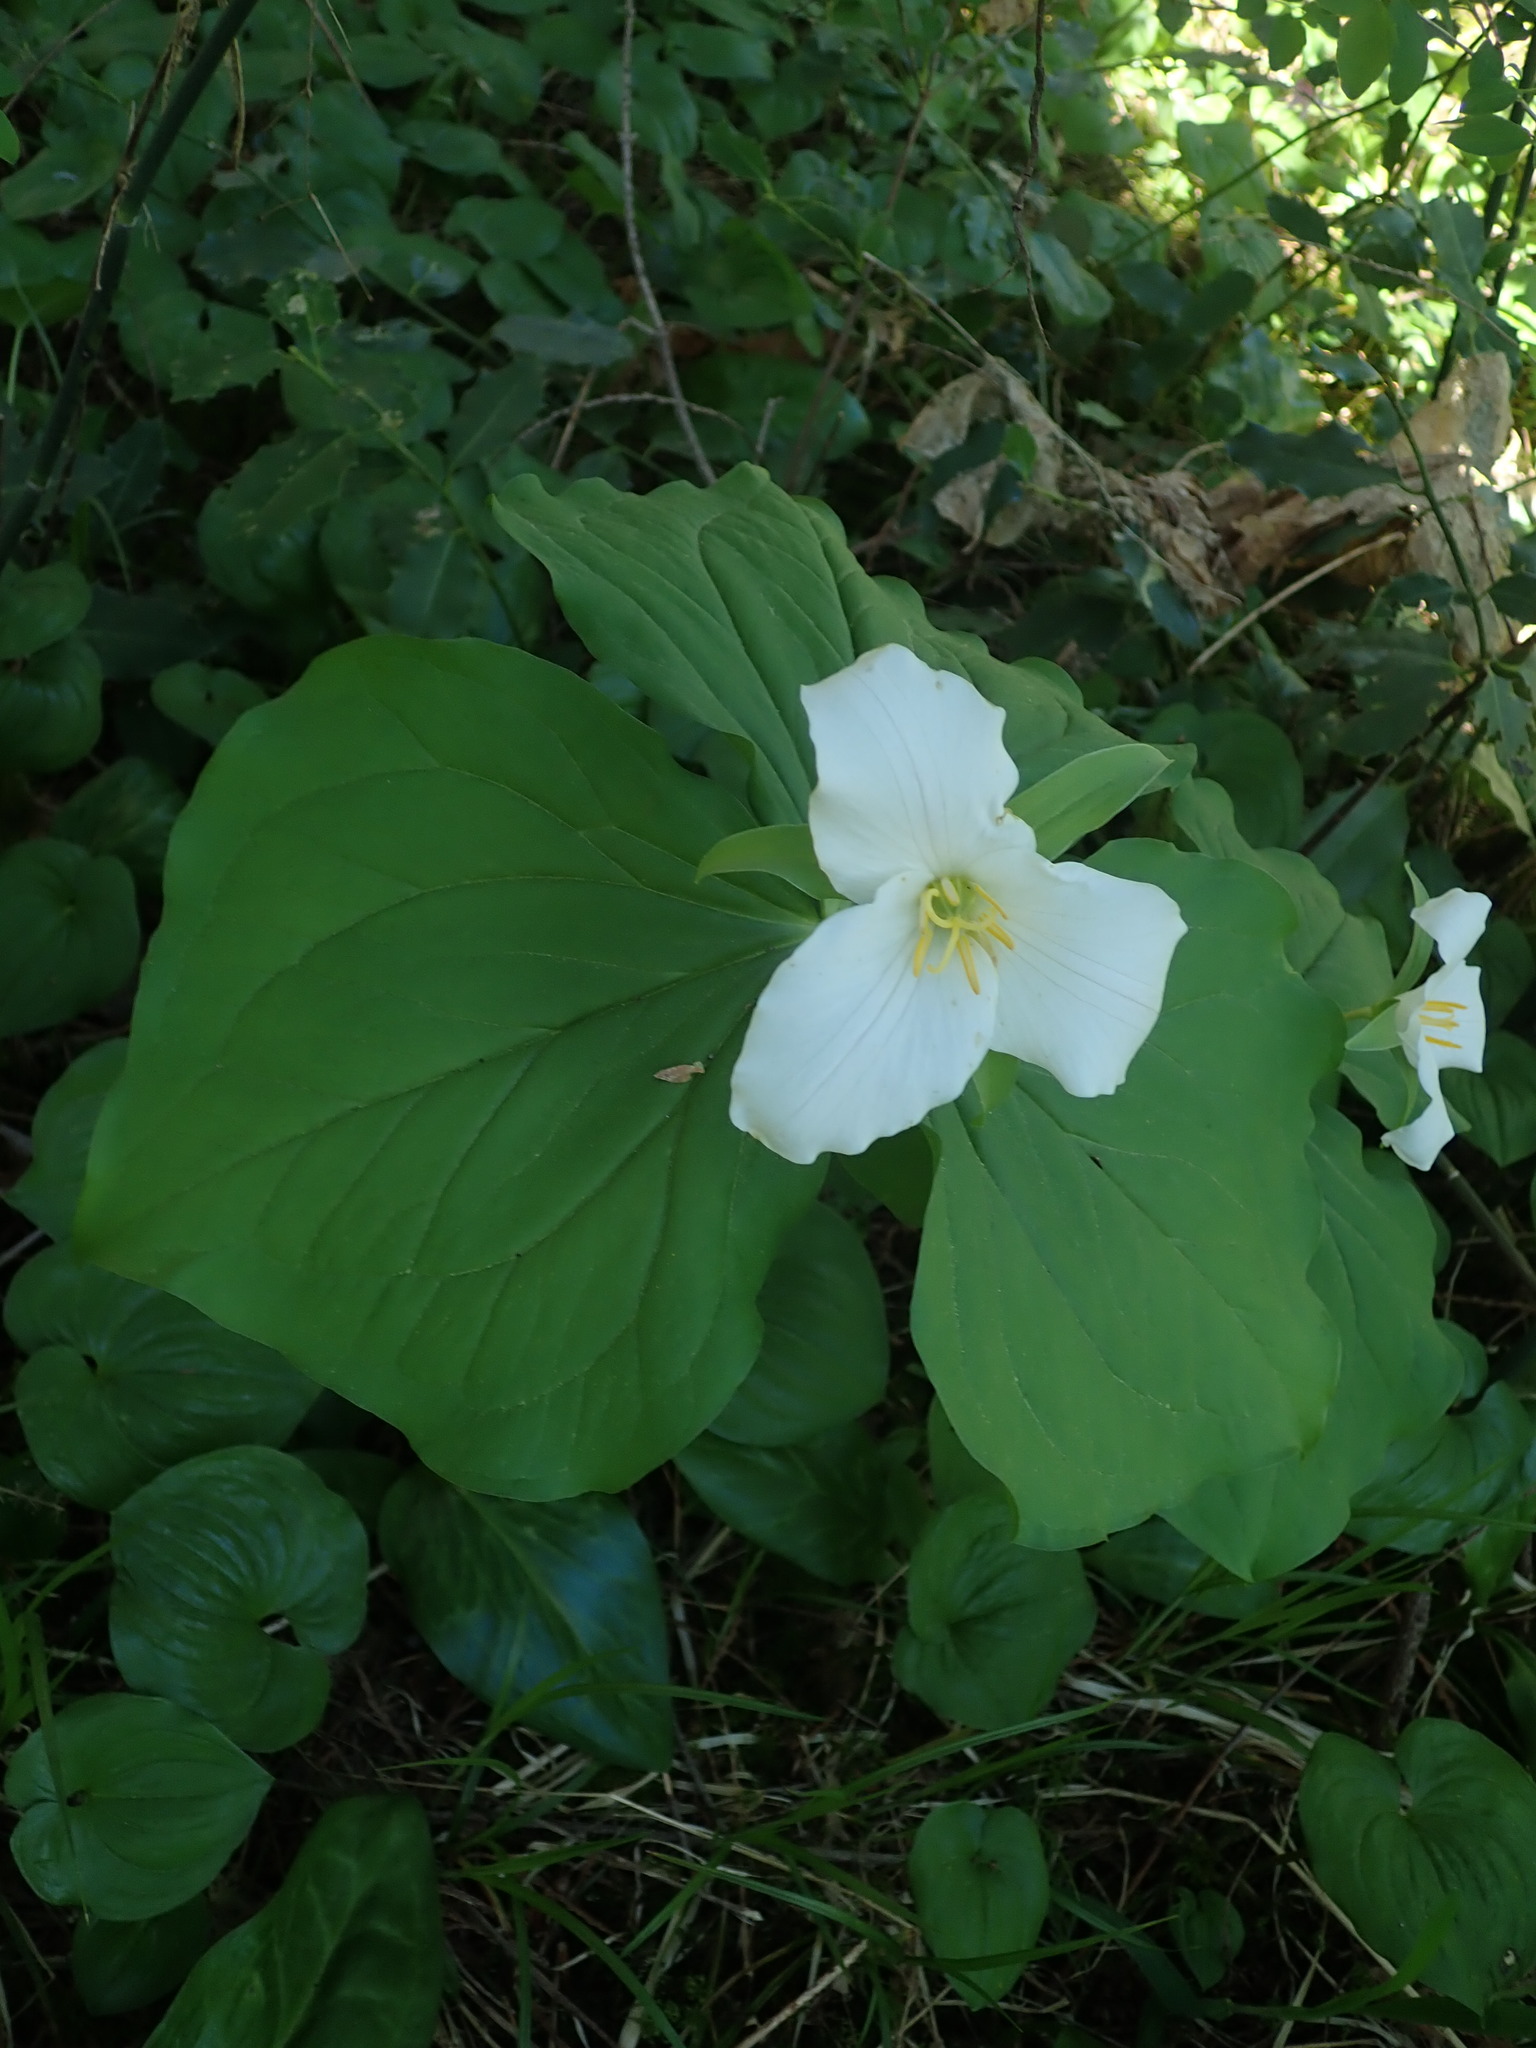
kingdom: Plantae
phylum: Tracheophyta
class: Liliopsida
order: Liliales
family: Melanthiaceae
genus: Trillium
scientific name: Trillium ovatum
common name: Pacific trillium
